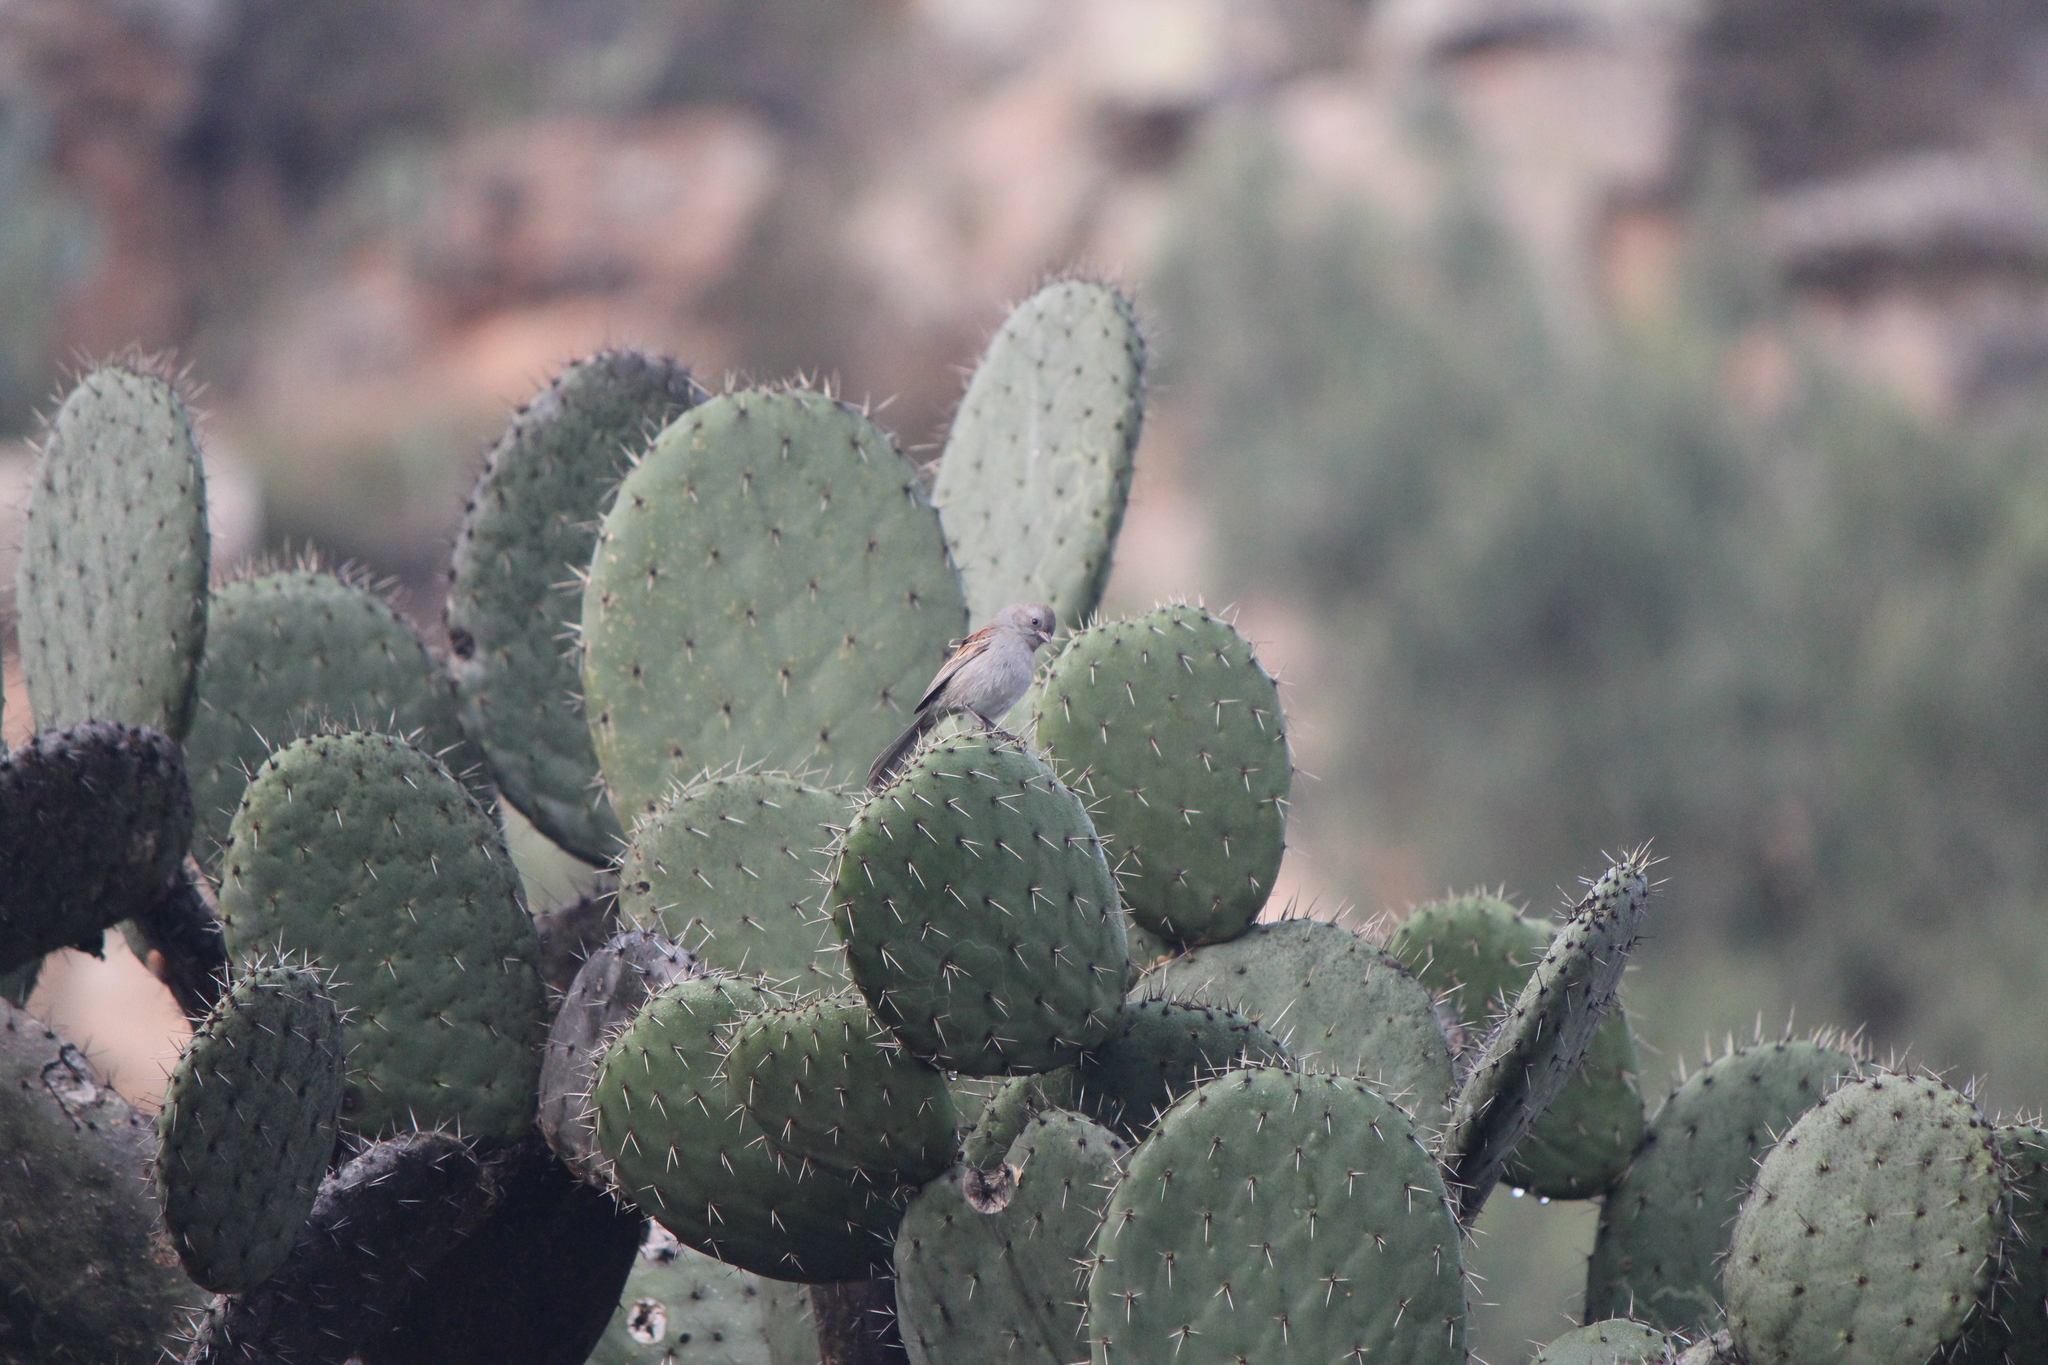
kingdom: Animalia
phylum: Chordata
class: Aves
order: Passeriformes
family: Passerellidae
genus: Spizella
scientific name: Spizella atrogularis
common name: Black-chinned sparrow
